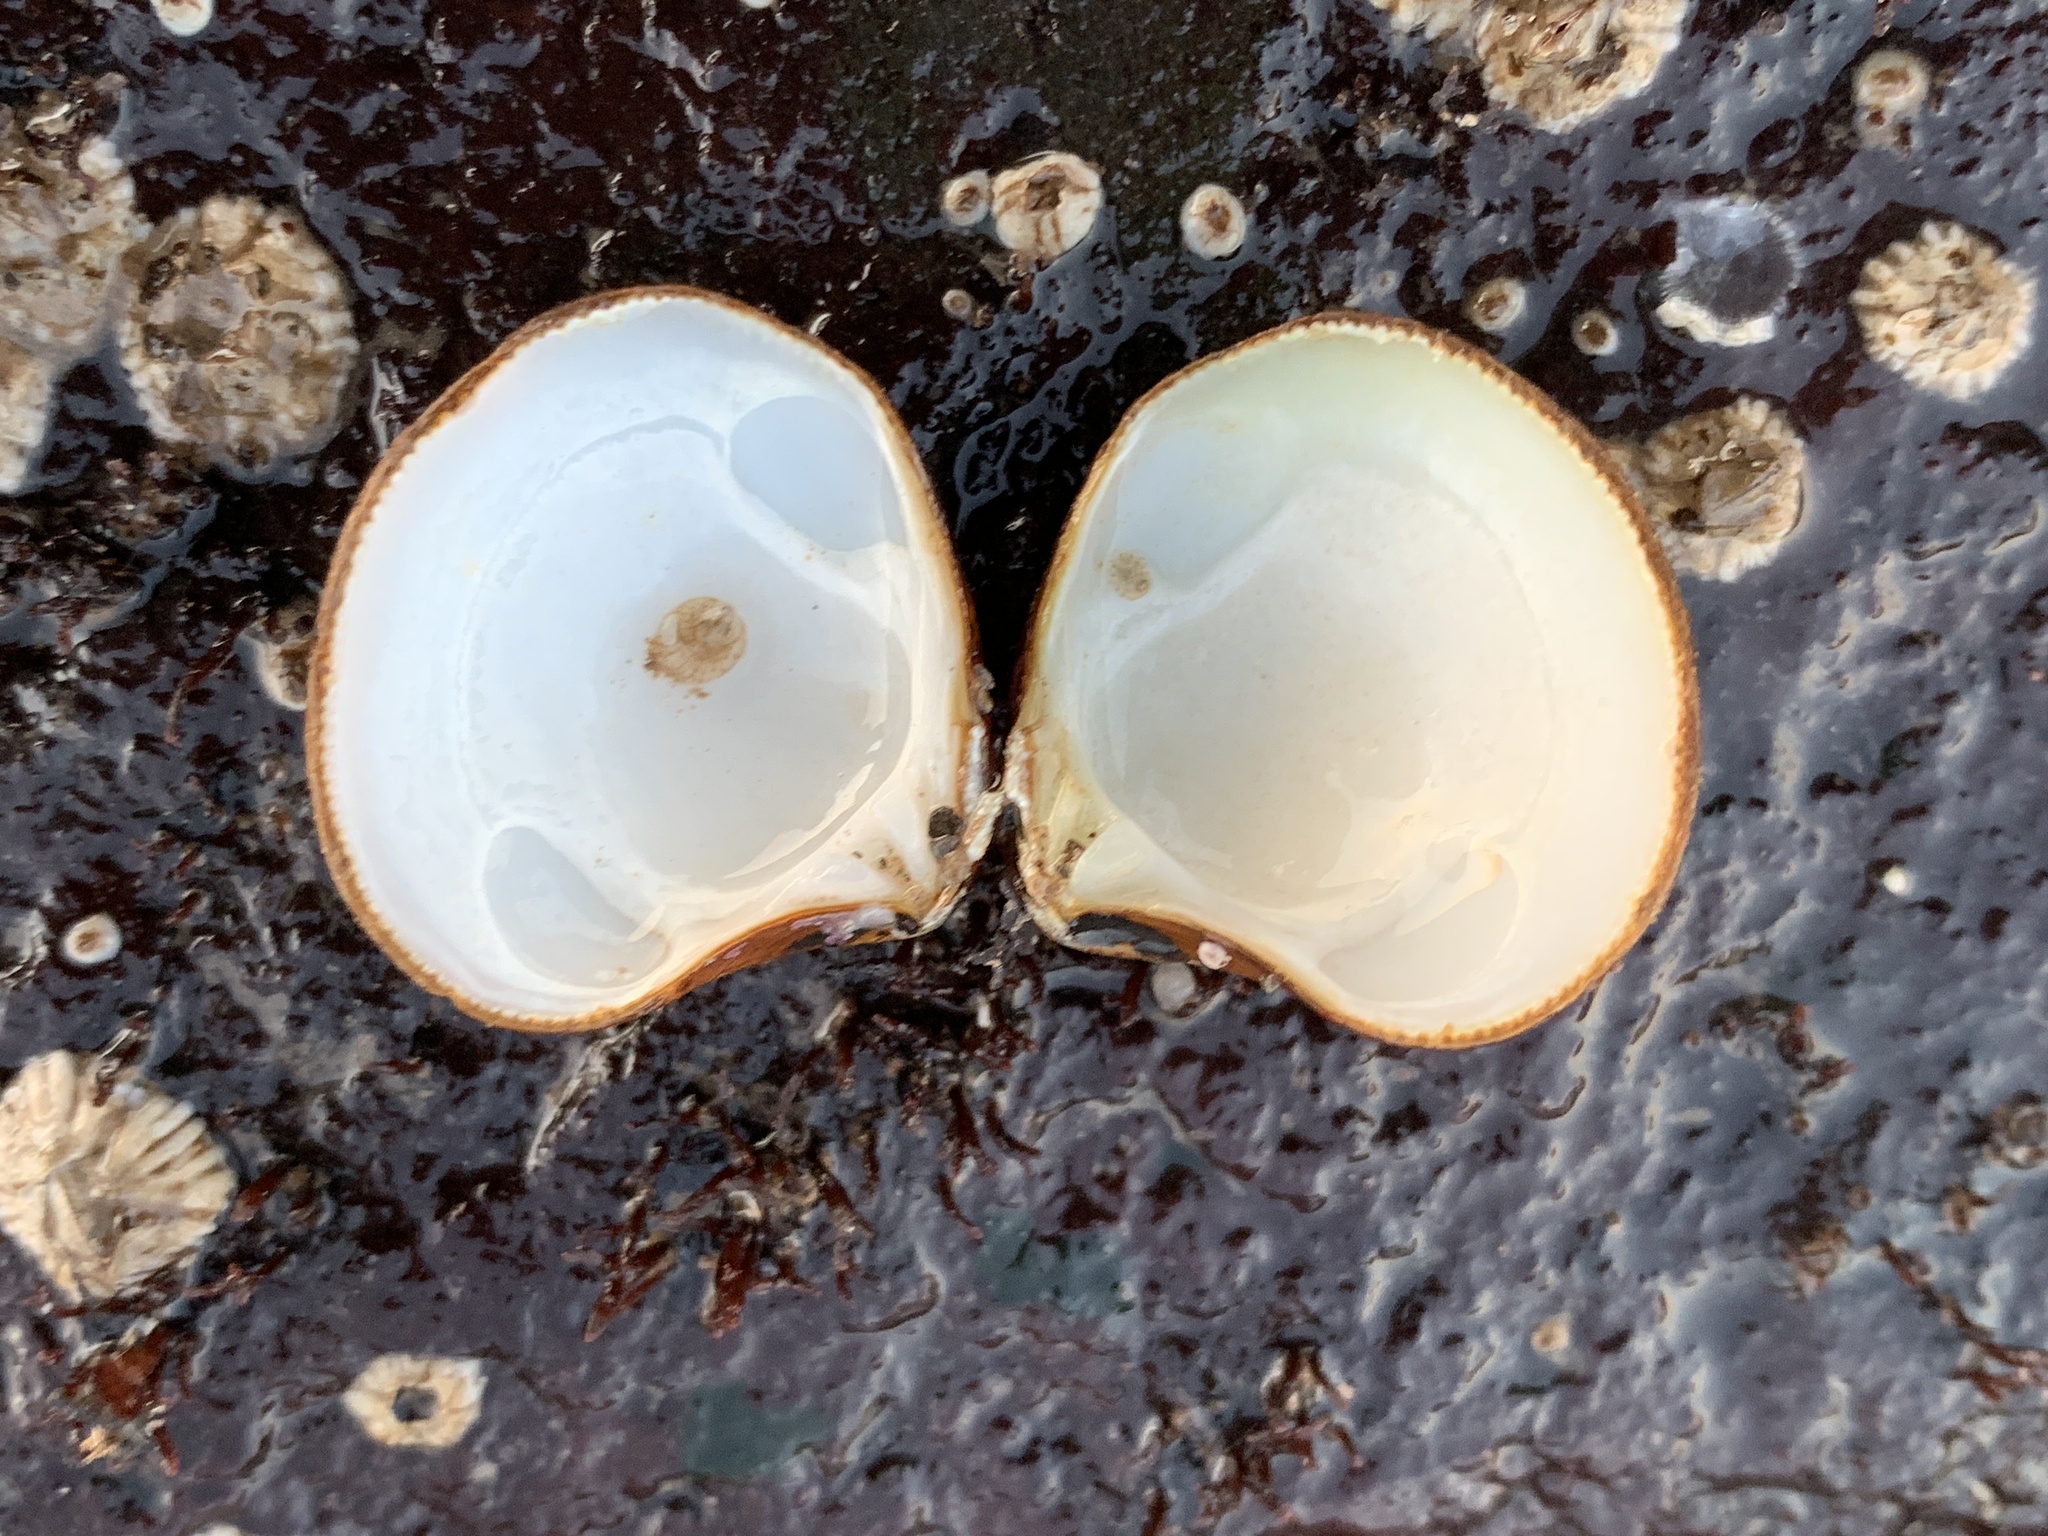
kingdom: Animalia
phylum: Mollusca
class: Bivalvia
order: Carditida
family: Astartidae
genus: Astarte
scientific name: Astarte undata
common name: Wavy astarte
